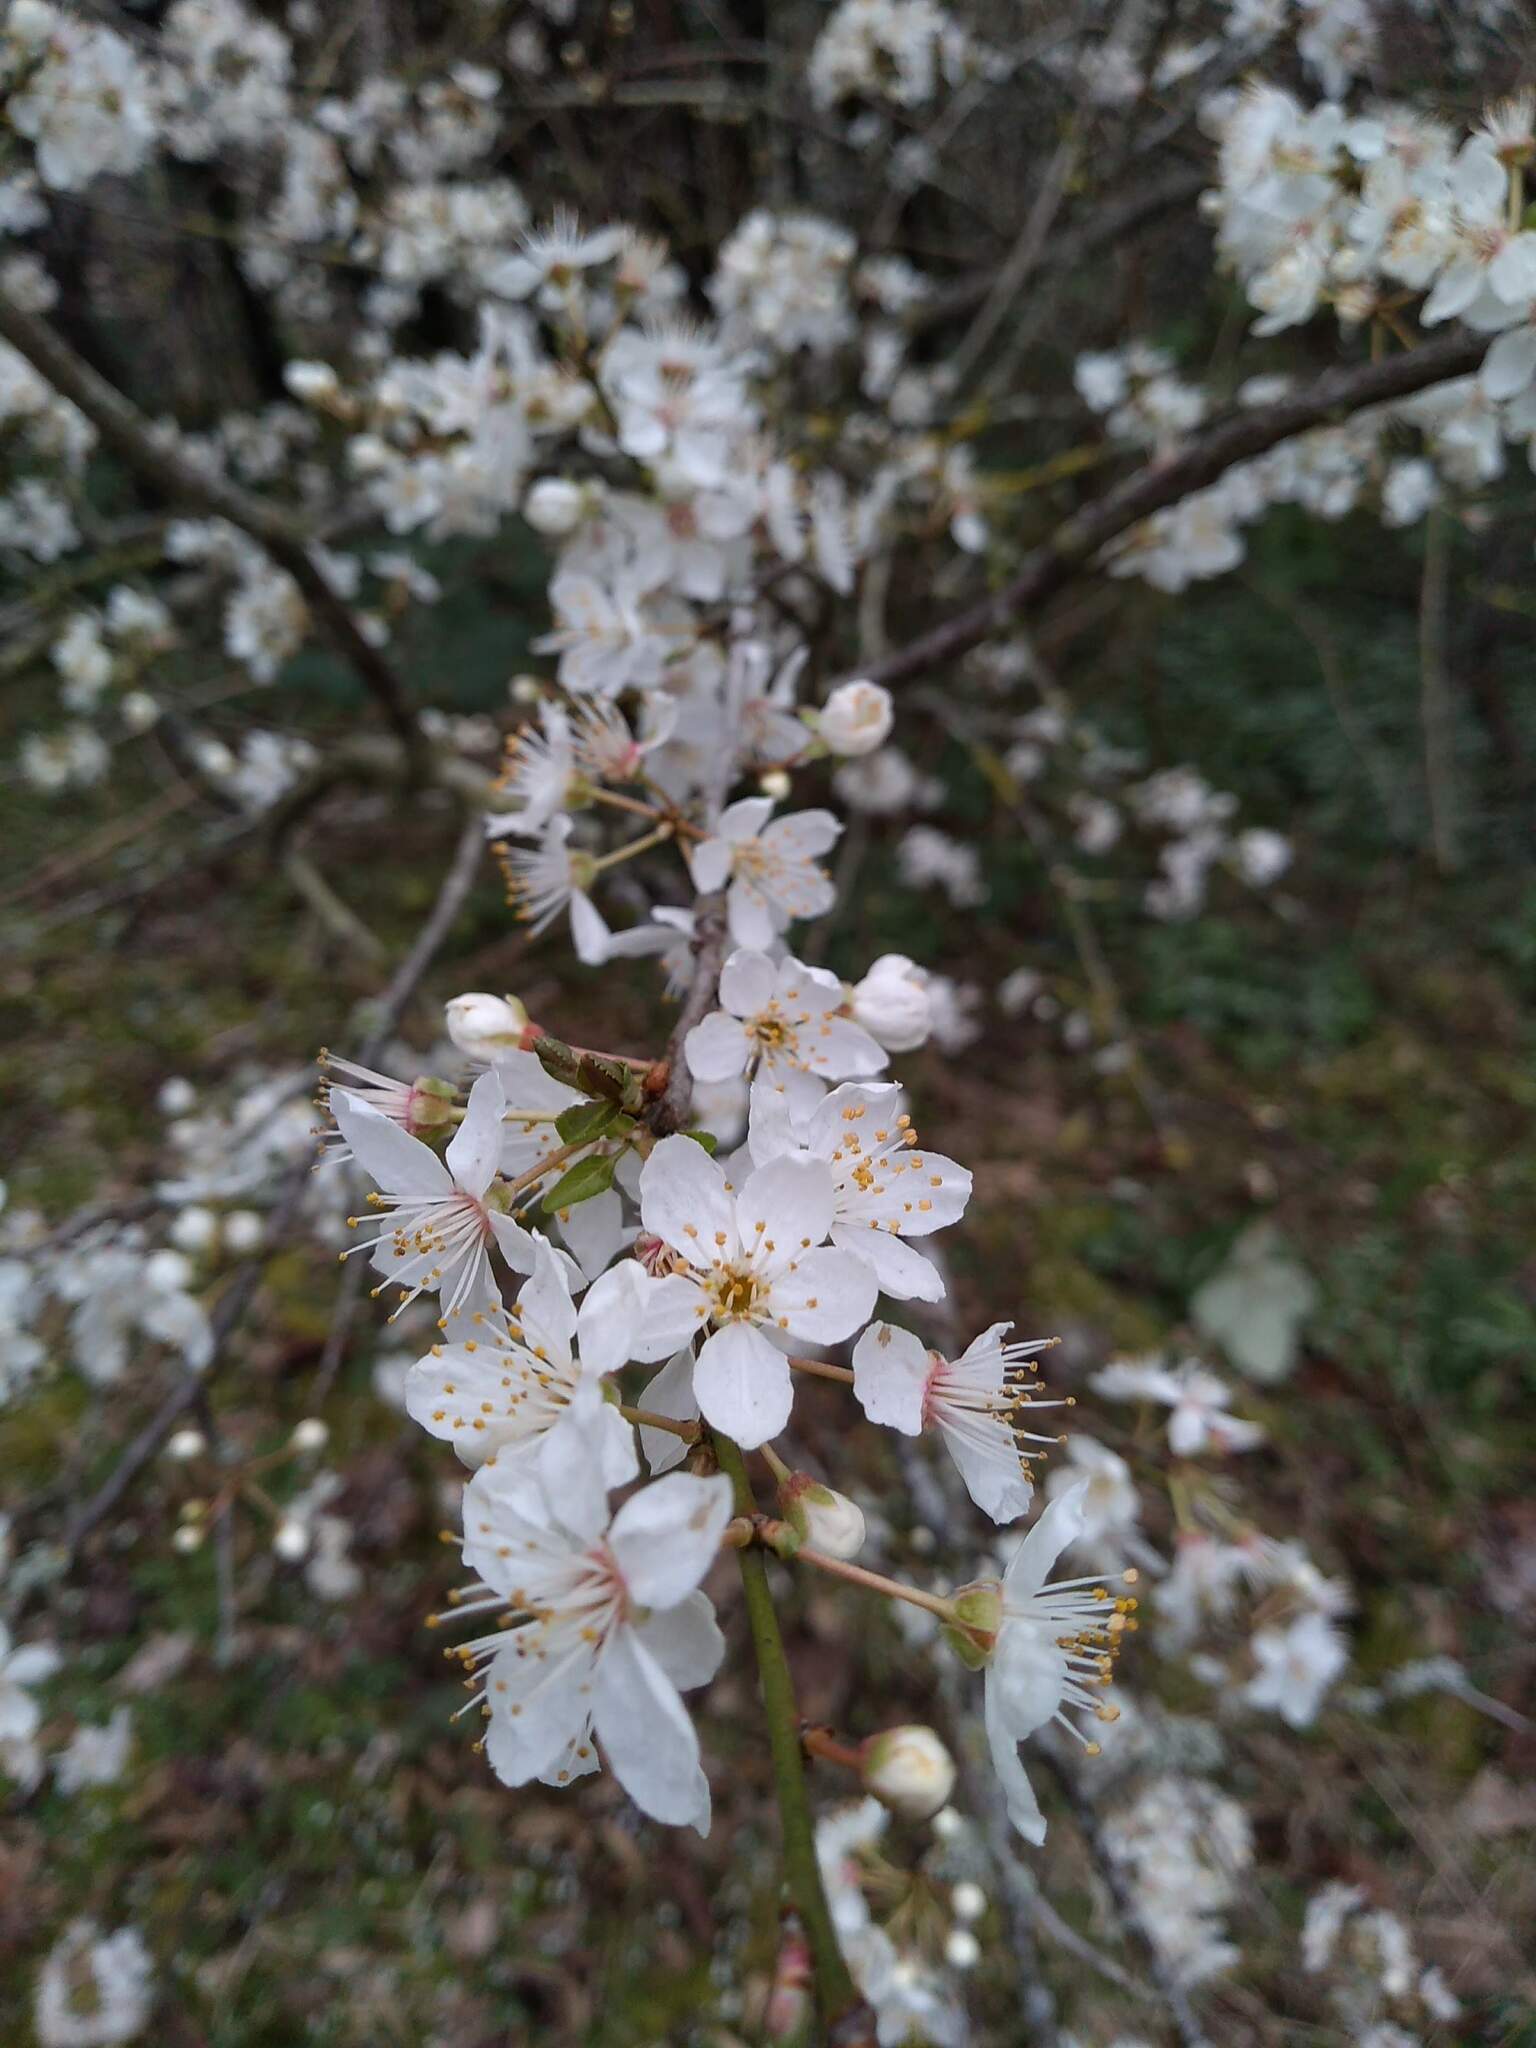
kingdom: Plantae
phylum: Tracheophyta
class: Magnoliopsida
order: Rosales
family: Rosaceae
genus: Prunus
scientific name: Prunus cerasifera
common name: Cherry plum
